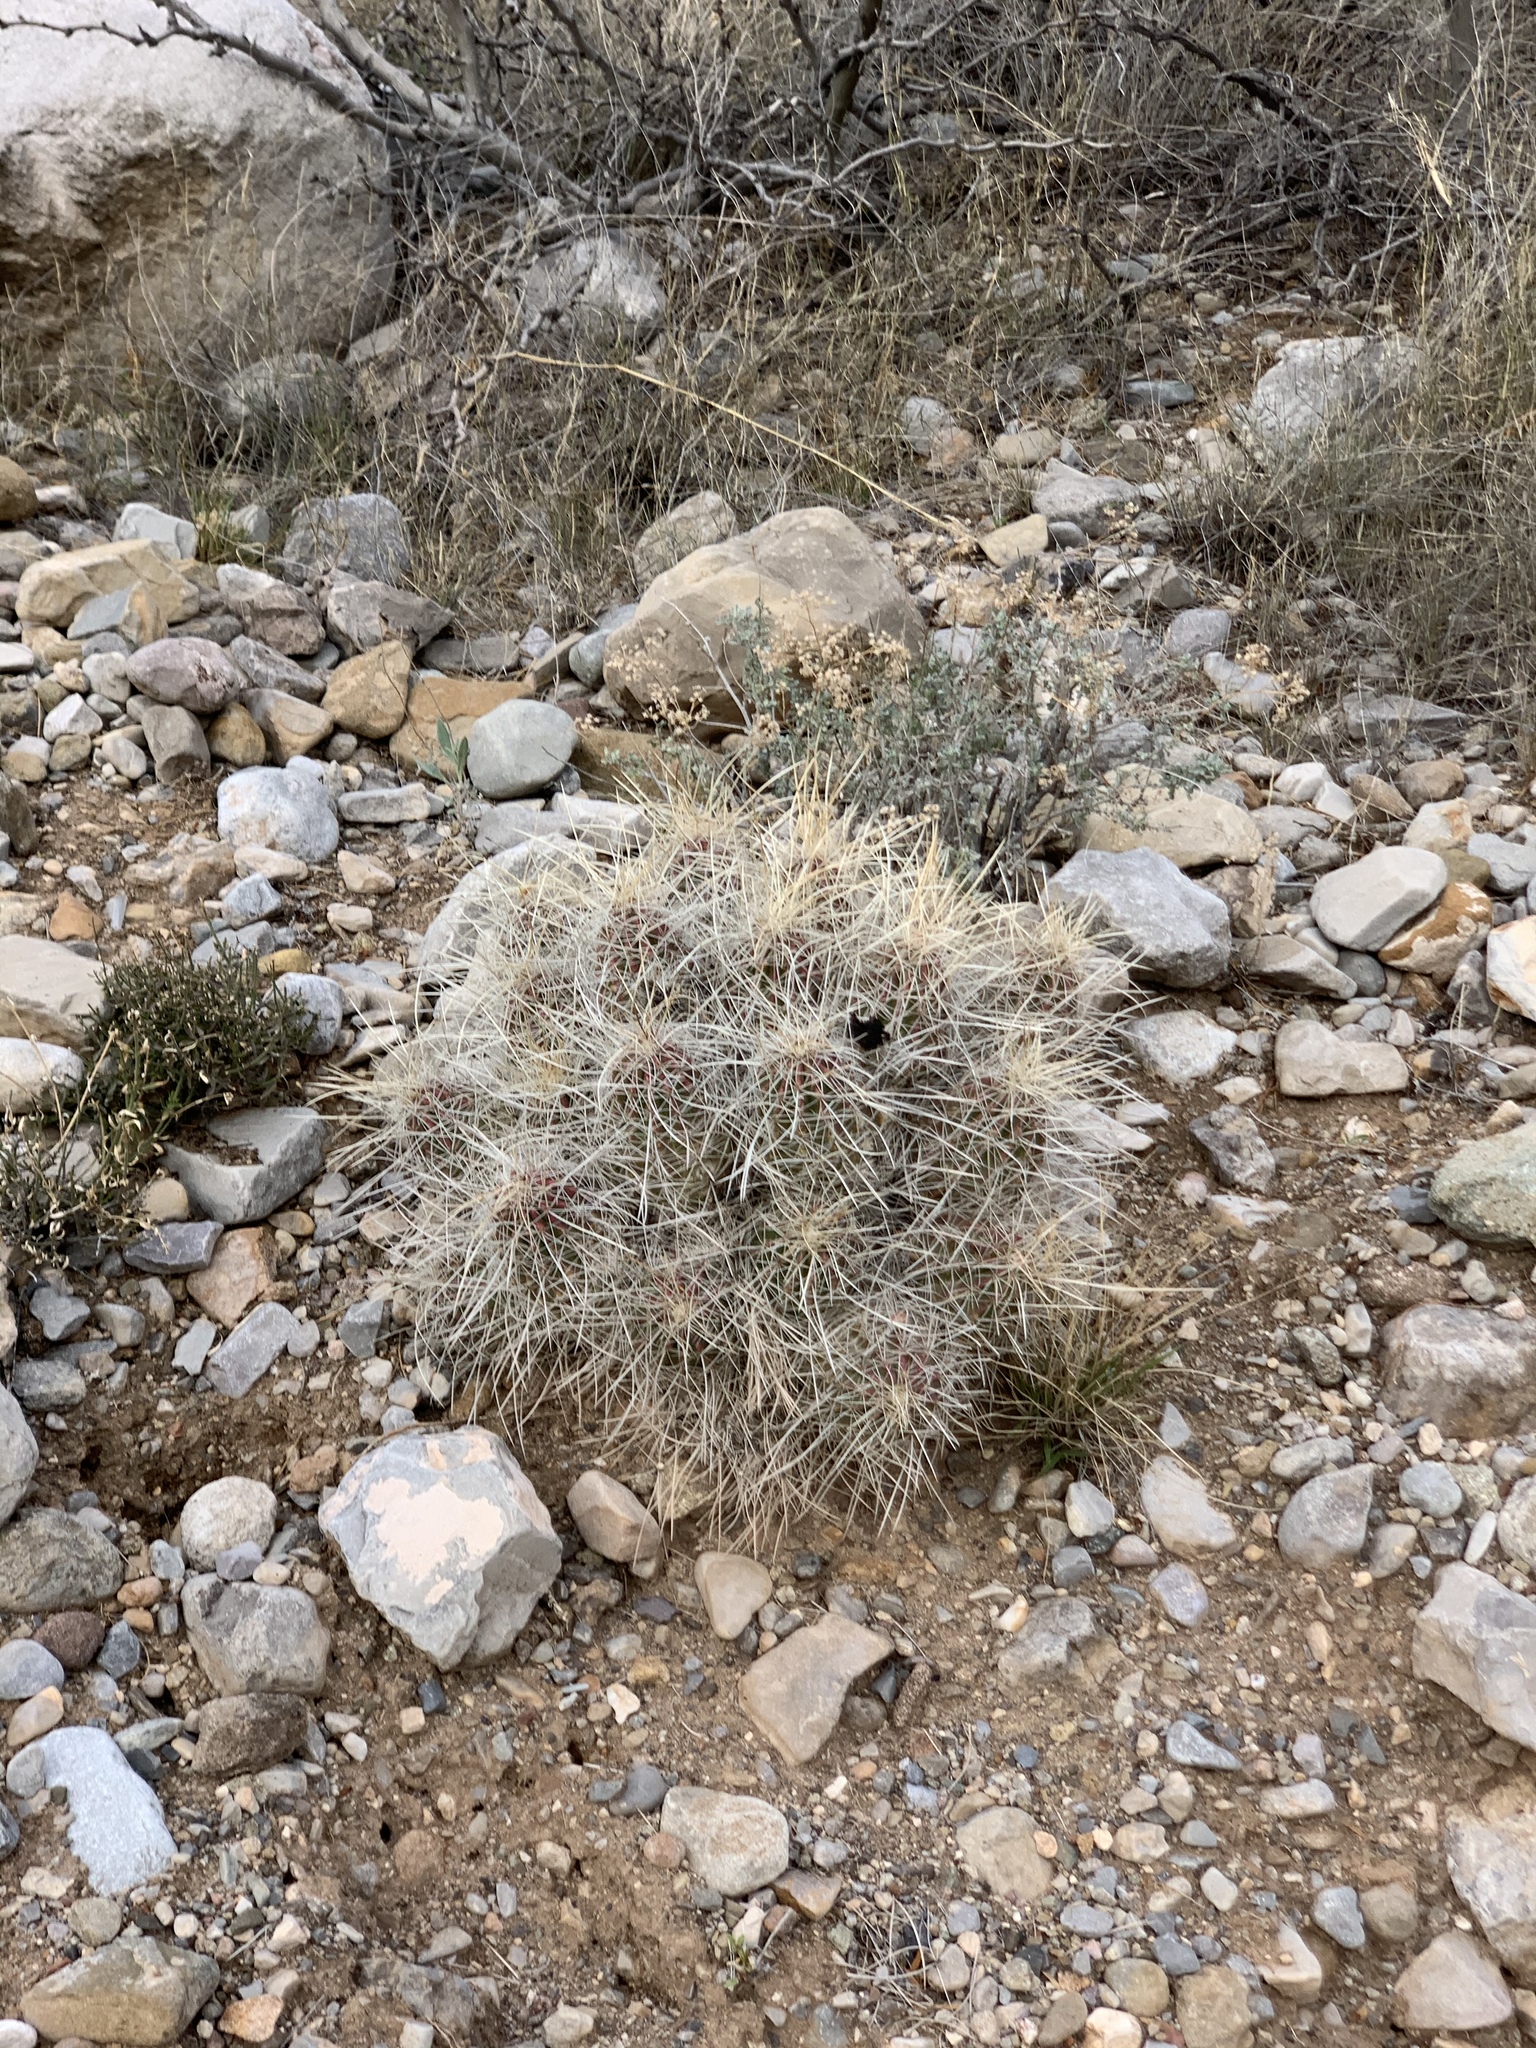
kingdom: Plantae
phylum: Tracheophyta
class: Magnoliopsida
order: Caryophyllales
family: Cactaceae
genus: Echinocereus
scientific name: Echinocereus stramineus
